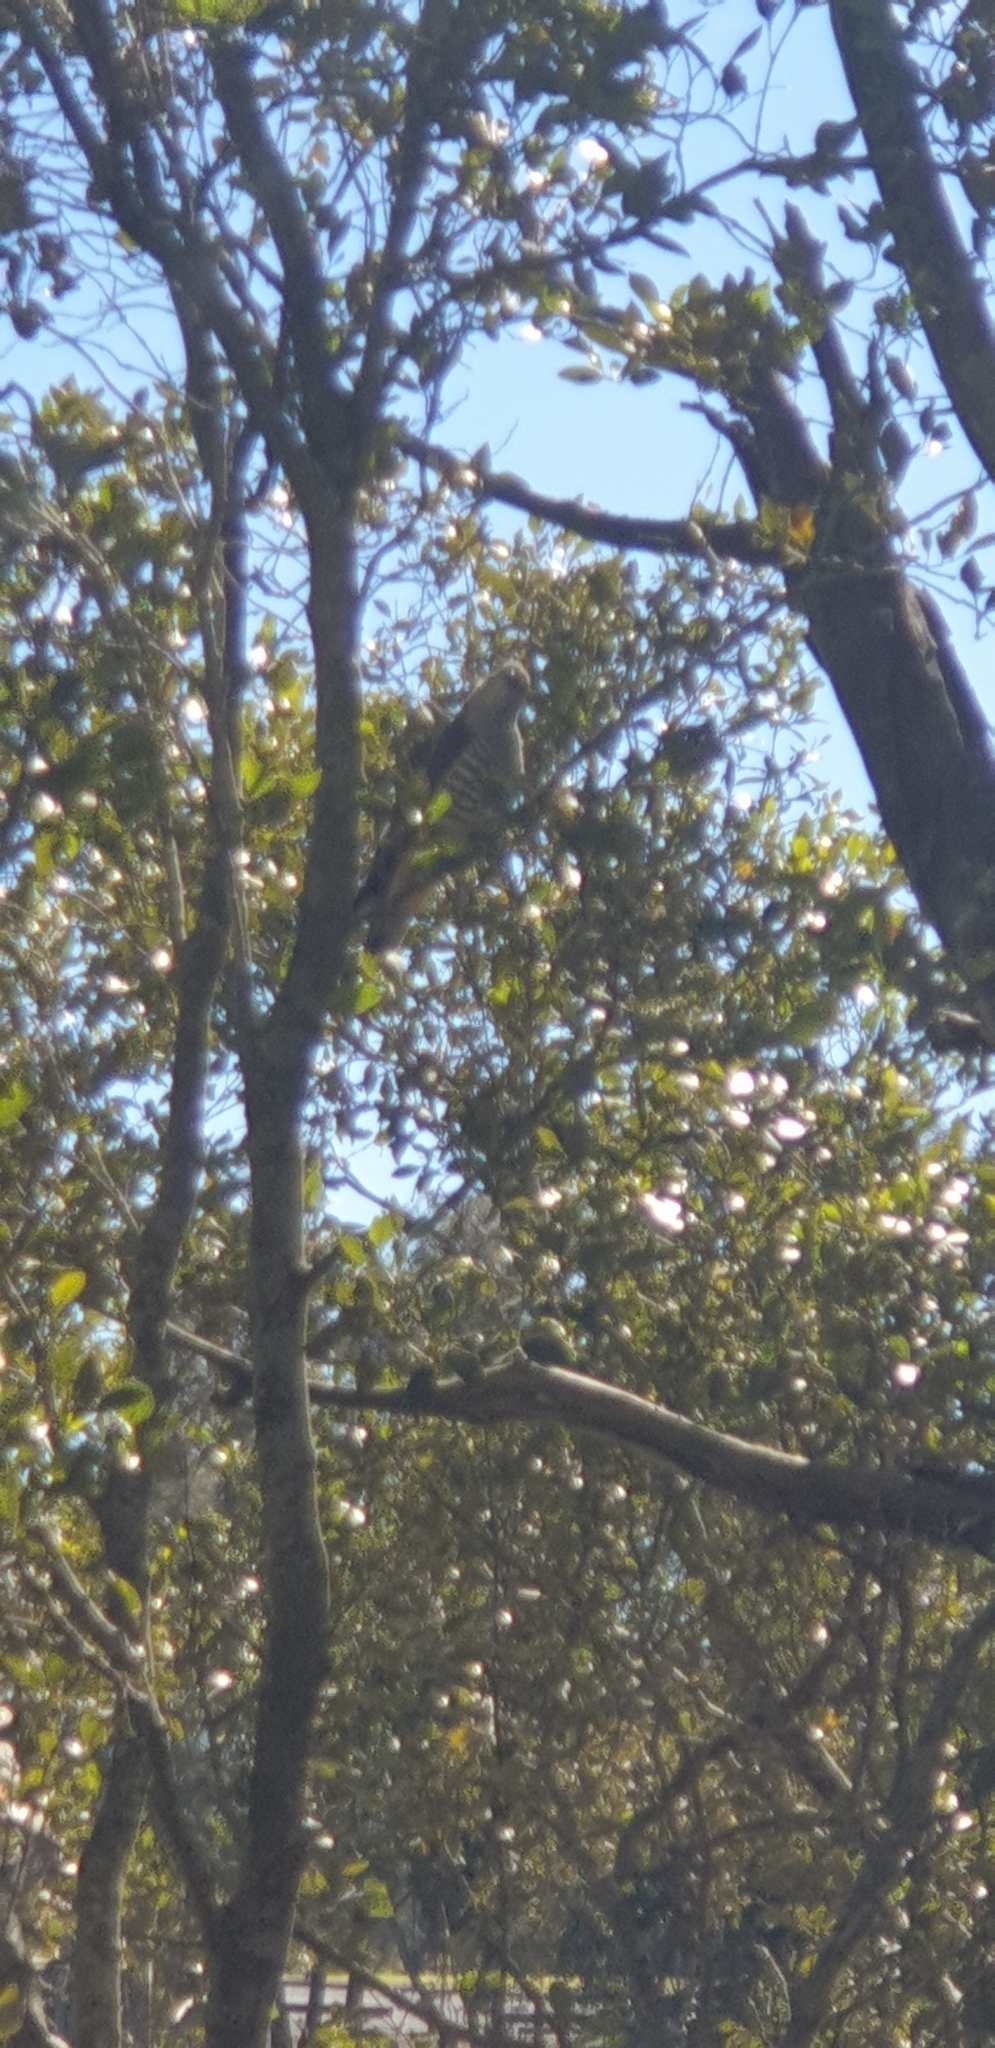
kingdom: Animalia
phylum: Chordata
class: Aves
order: Accipitriformes
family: Accipitridae
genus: Aviceda
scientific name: Aviceda subcristata
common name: Pacific baza
